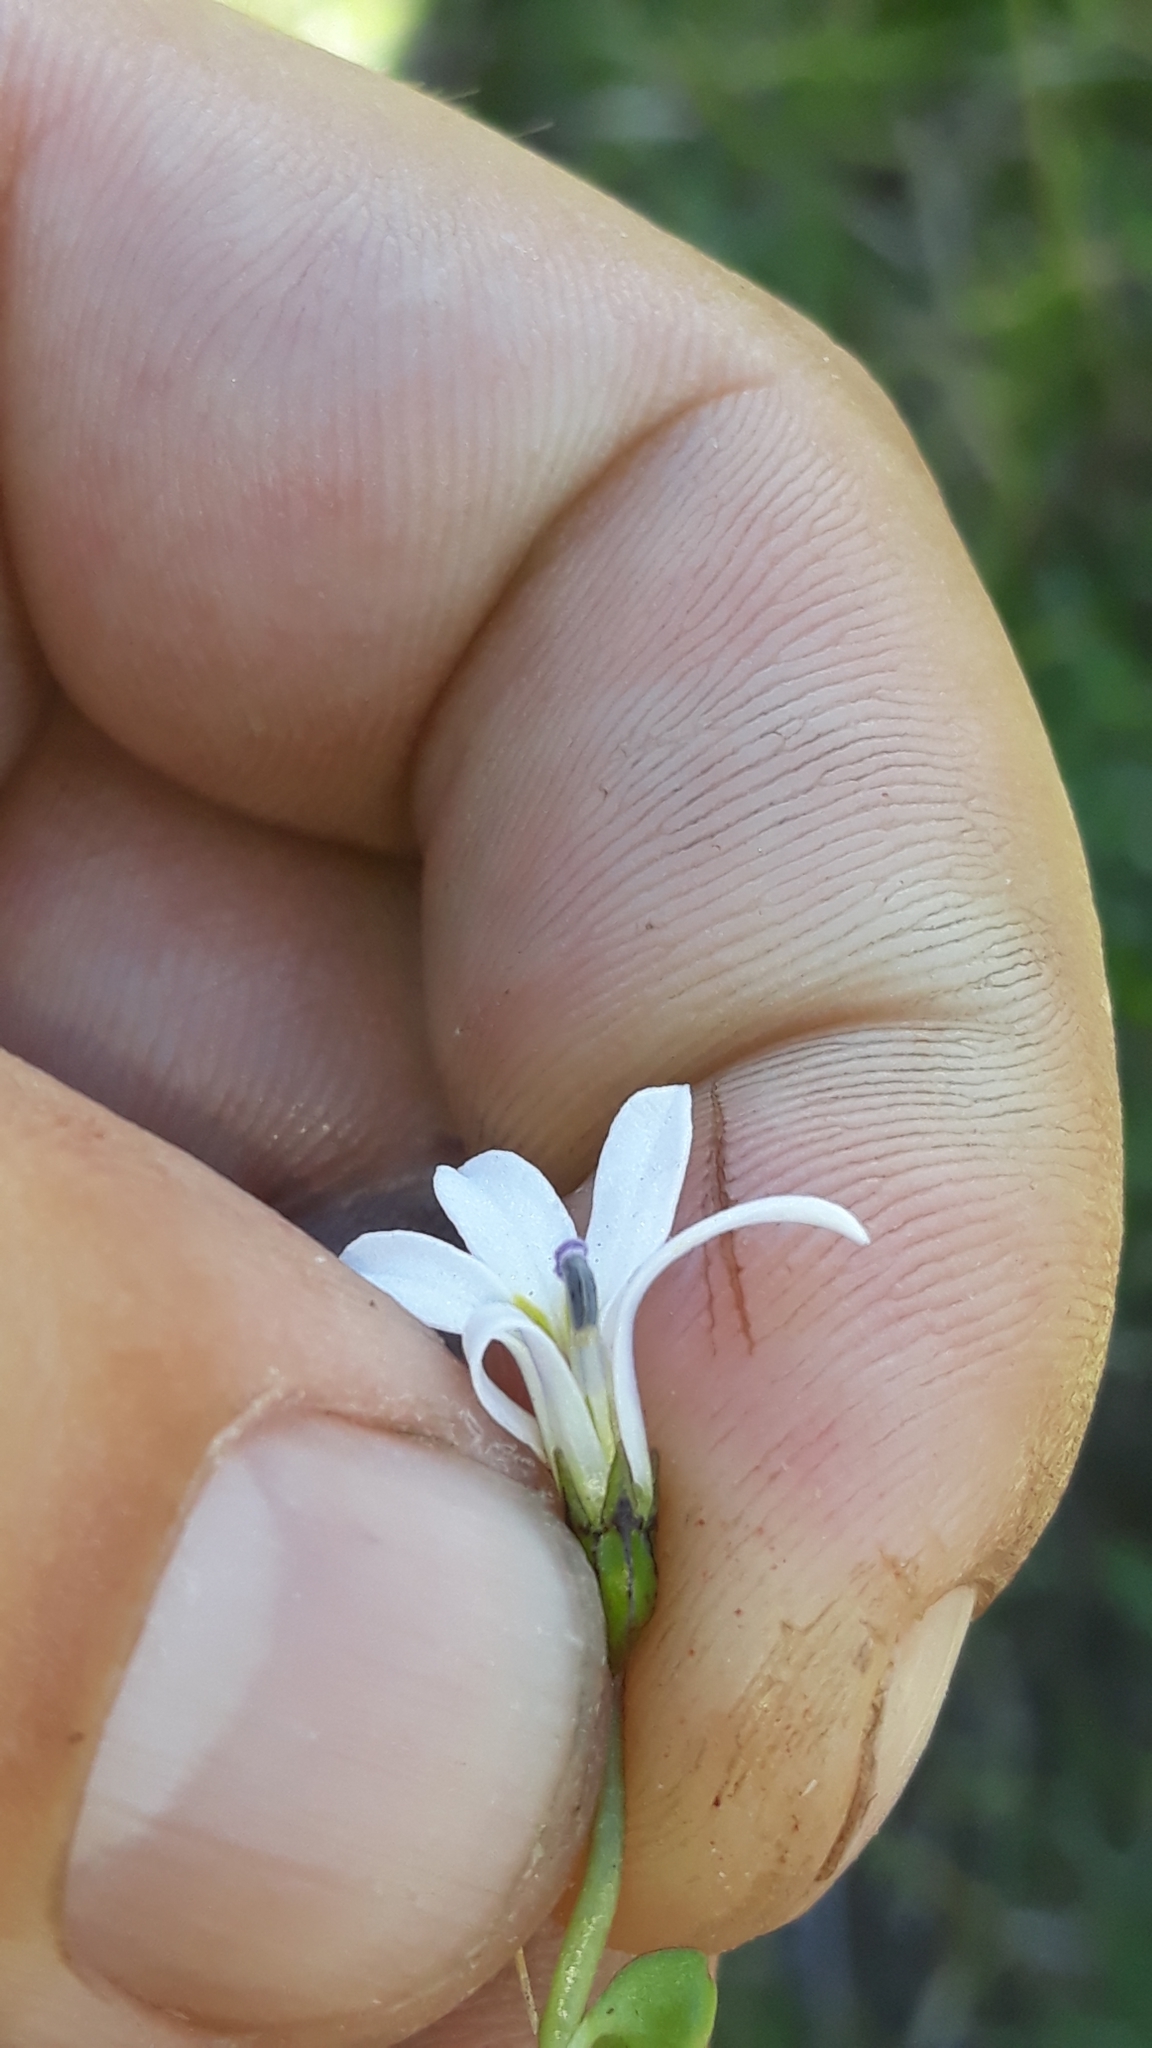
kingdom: Plantae
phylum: Tracheophyta
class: Magnoliopsida
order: Asterales
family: Campanulaceae
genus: Lobelia
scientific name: Lobelia angulata
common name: Lawn lobelia
